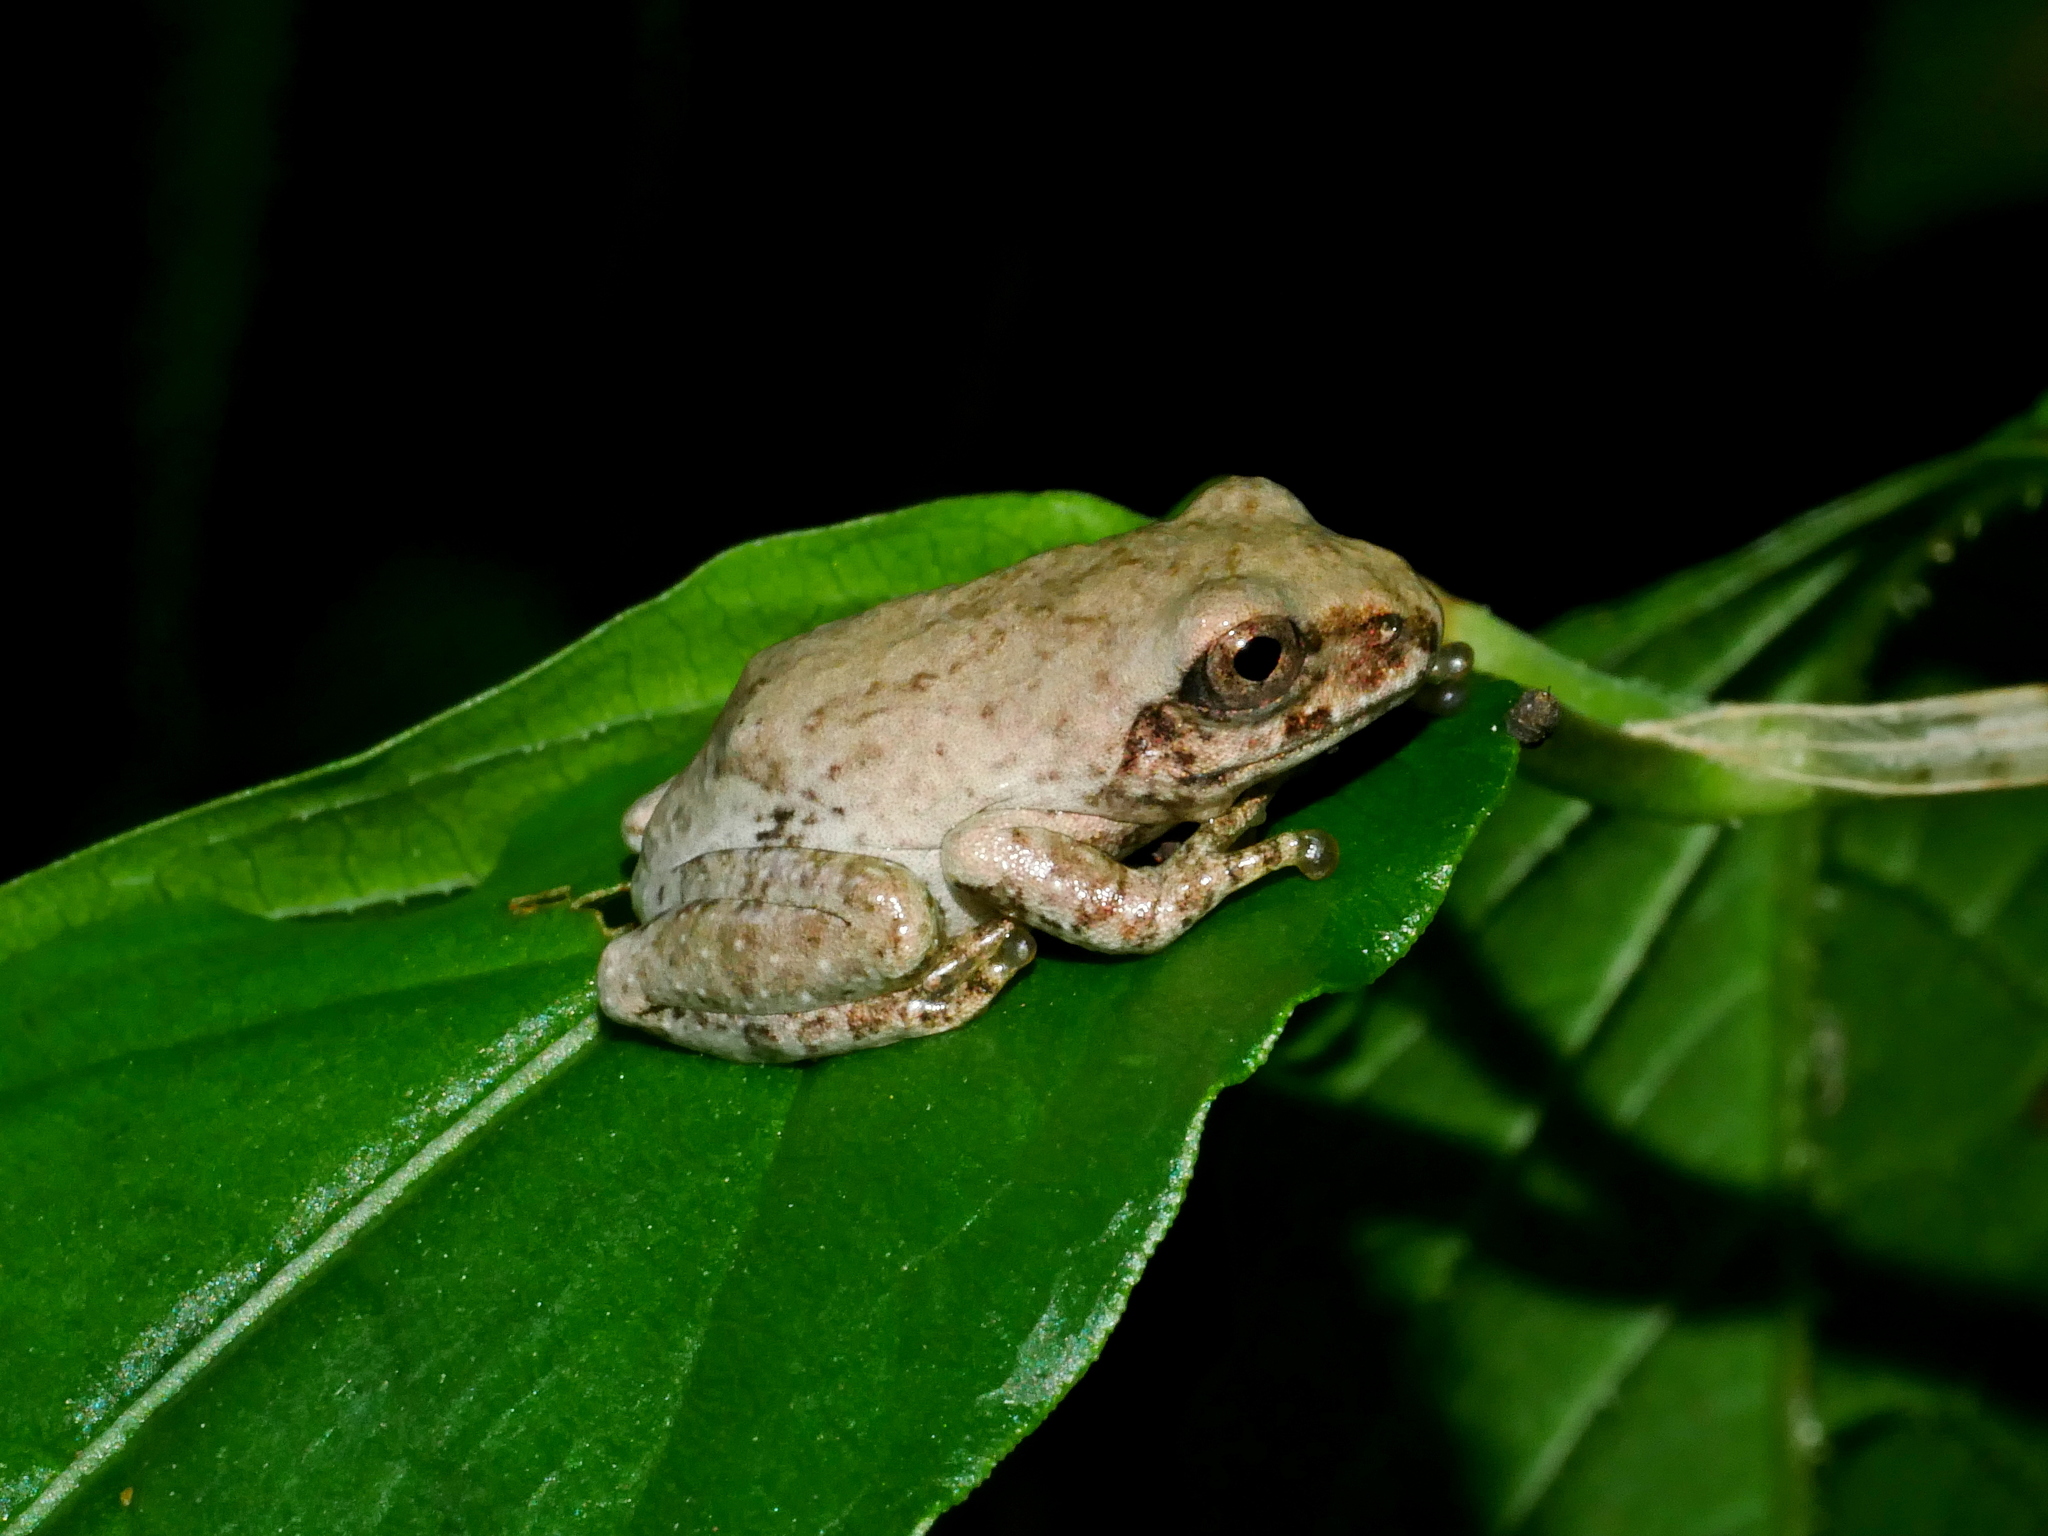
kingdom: Animalia
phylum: Chordata
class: Amphibia
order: Anura
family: Rhacophoridae
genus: Kurixalus
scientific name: Kurixalus idiootocus
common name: Temple treefrog
